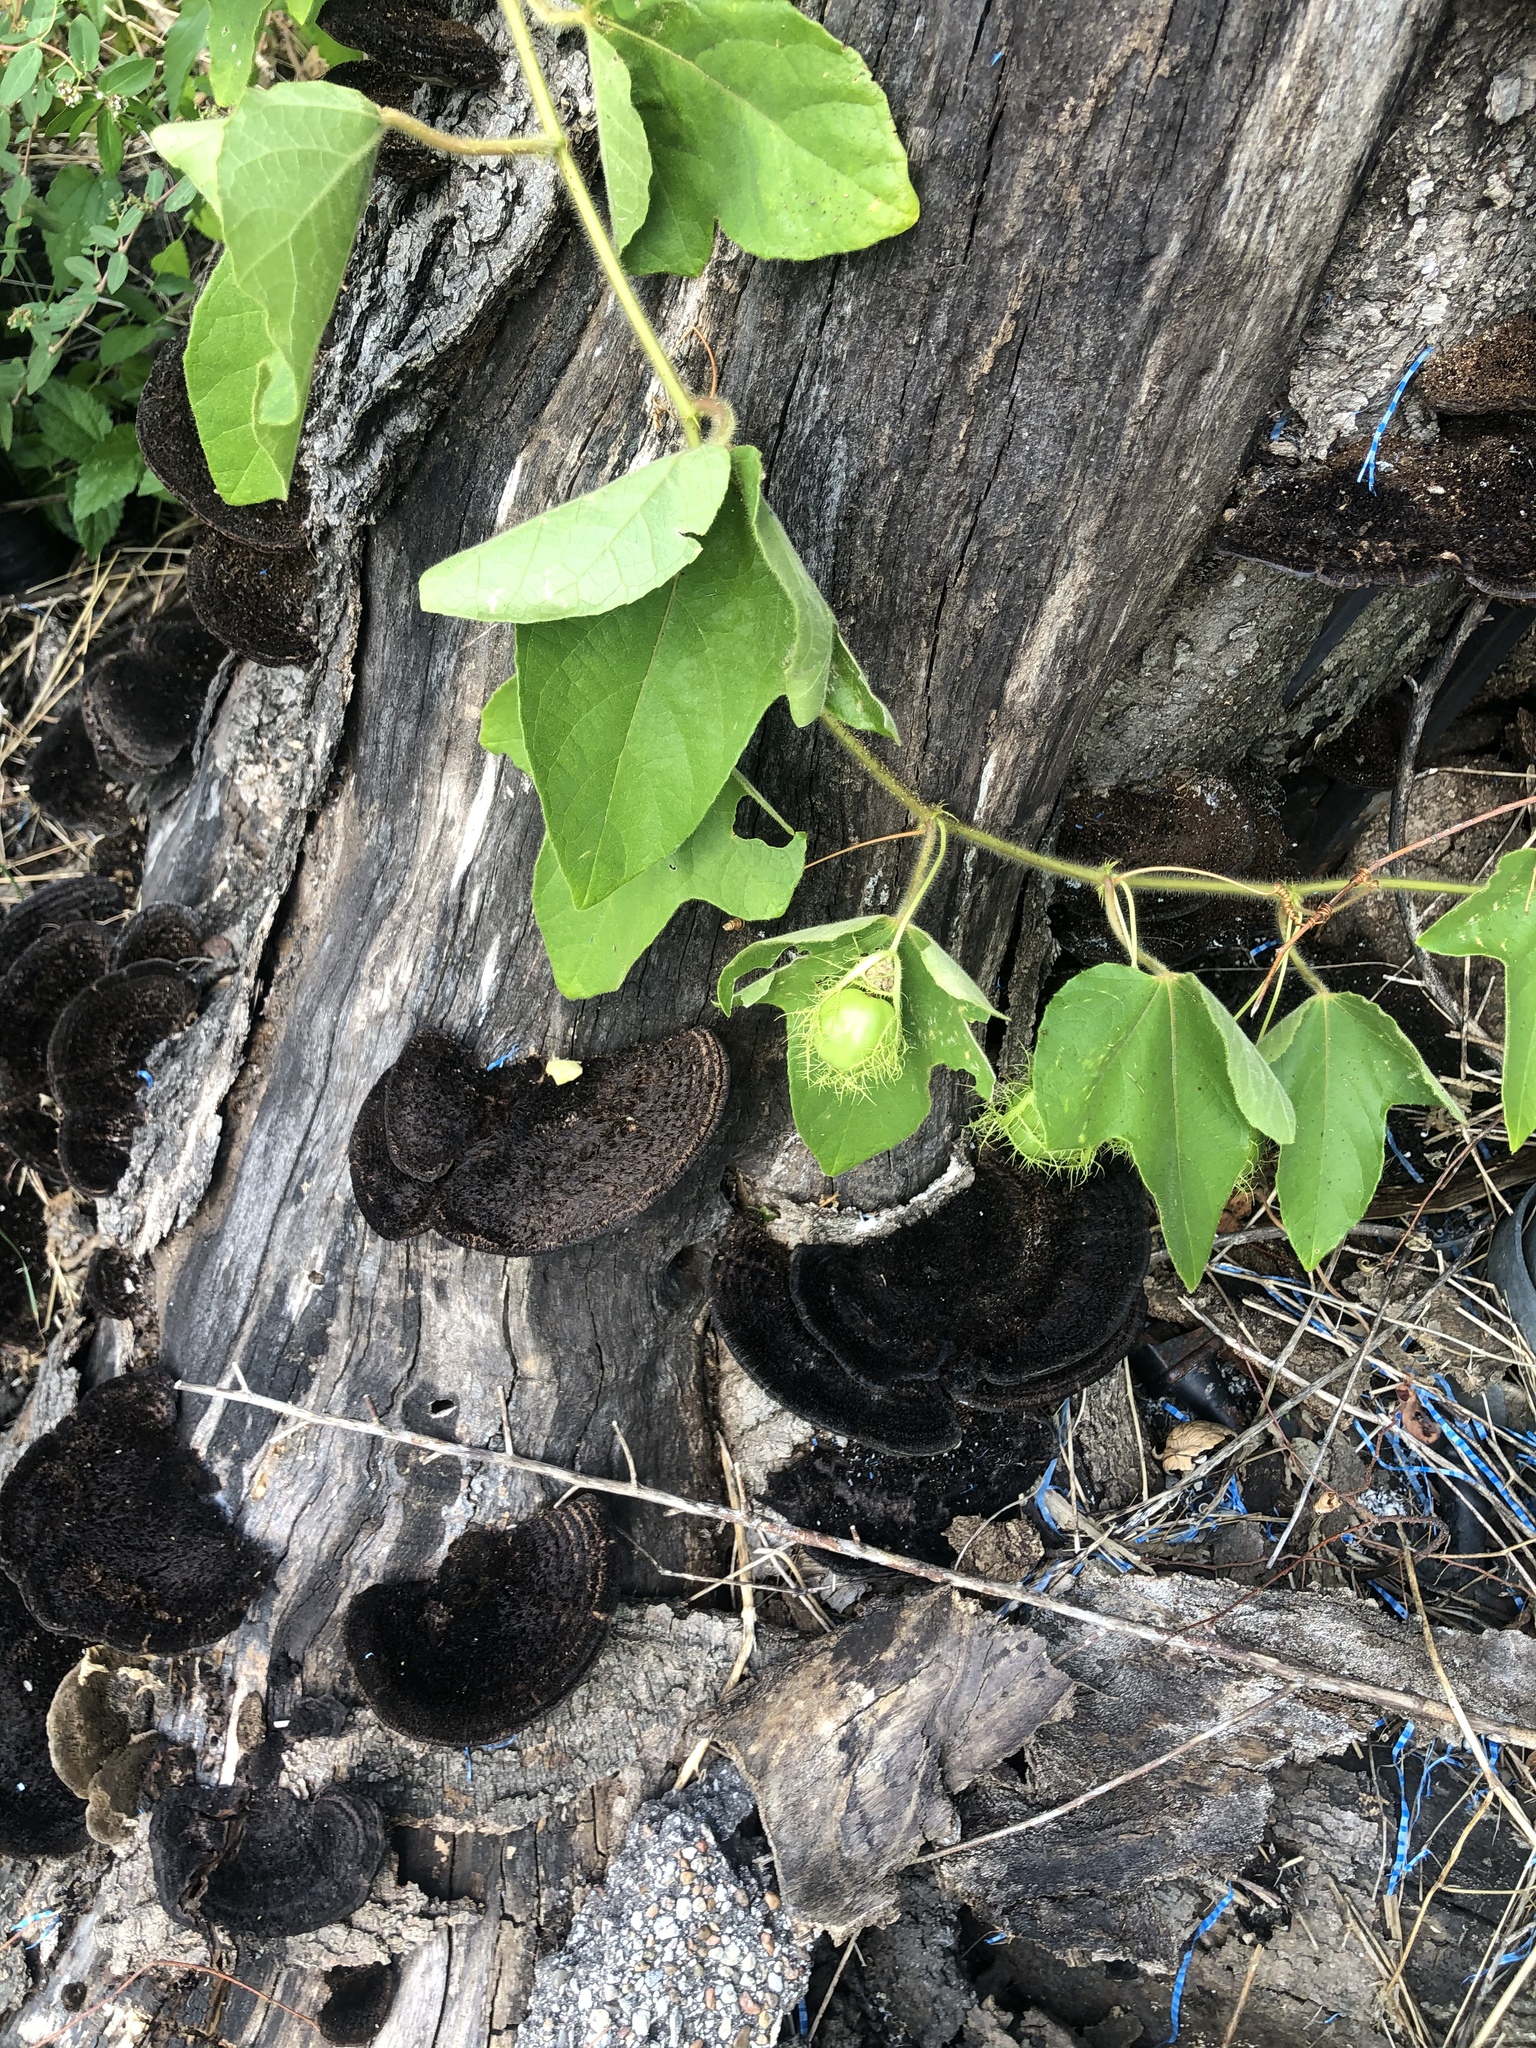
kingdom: Fungi
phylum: Basidiomycota
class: Agaricomycetes
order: Polyporales
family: Cerrenaceae
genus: Cerrena
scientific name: Cerrena hydnoides
